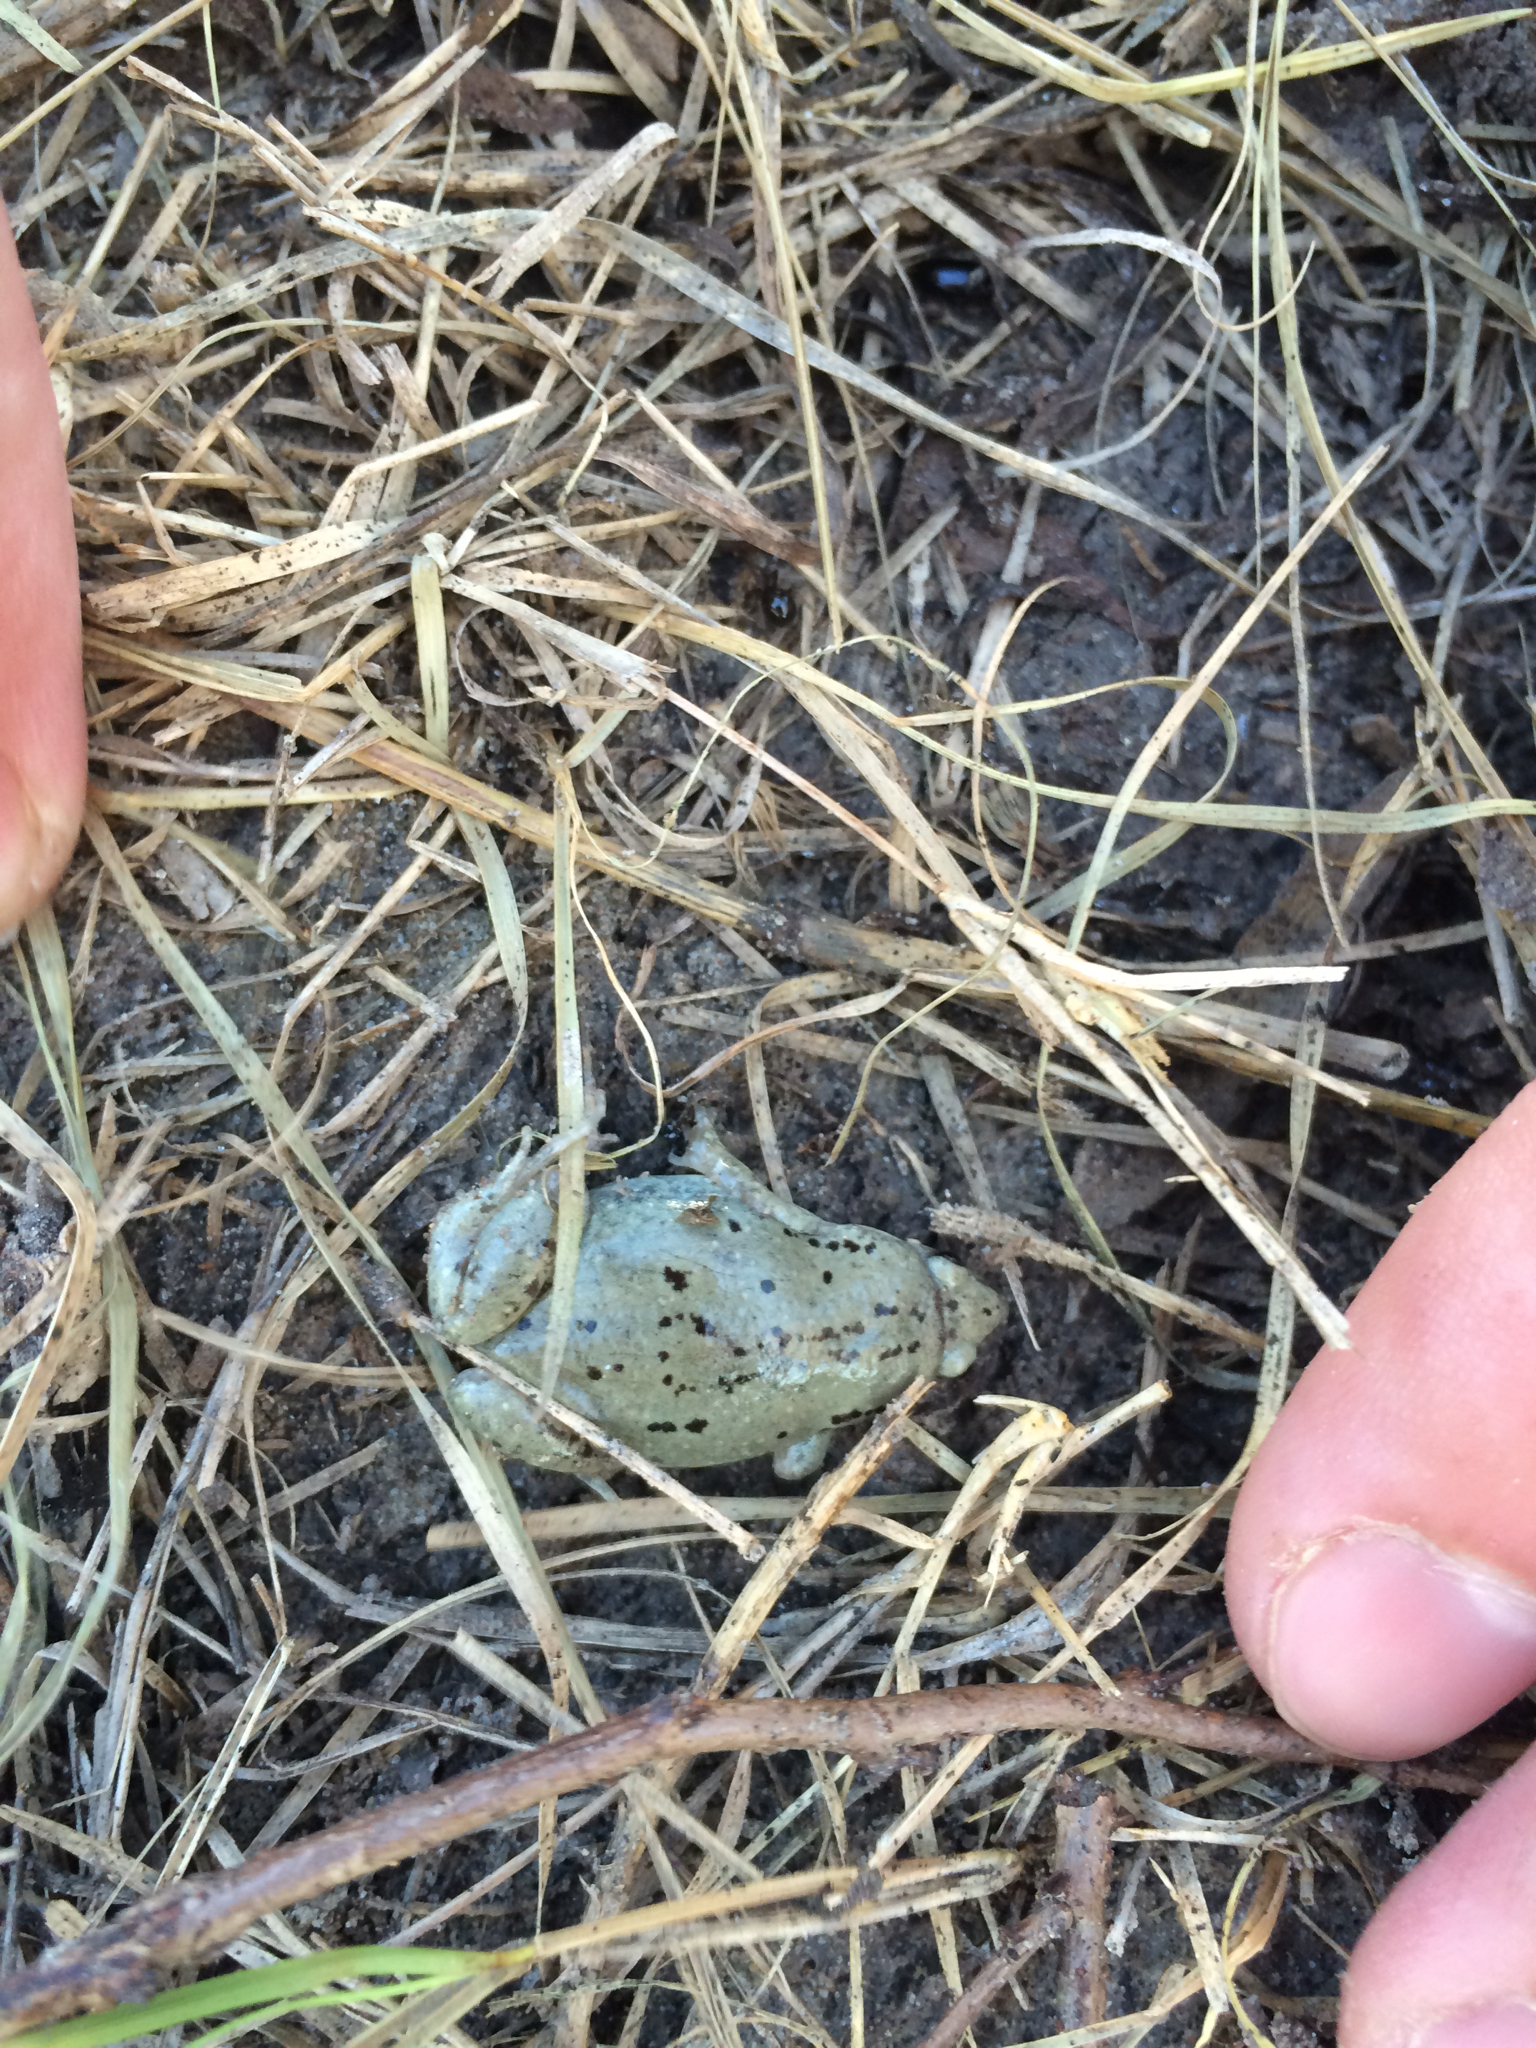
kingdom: Animalia
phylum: Chordata
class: Amphibia
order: Anura
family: Microhylidae
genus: Gastrophryne
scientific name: Gastrophryne olivacea
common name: Great plains narrow-mouthed toad
